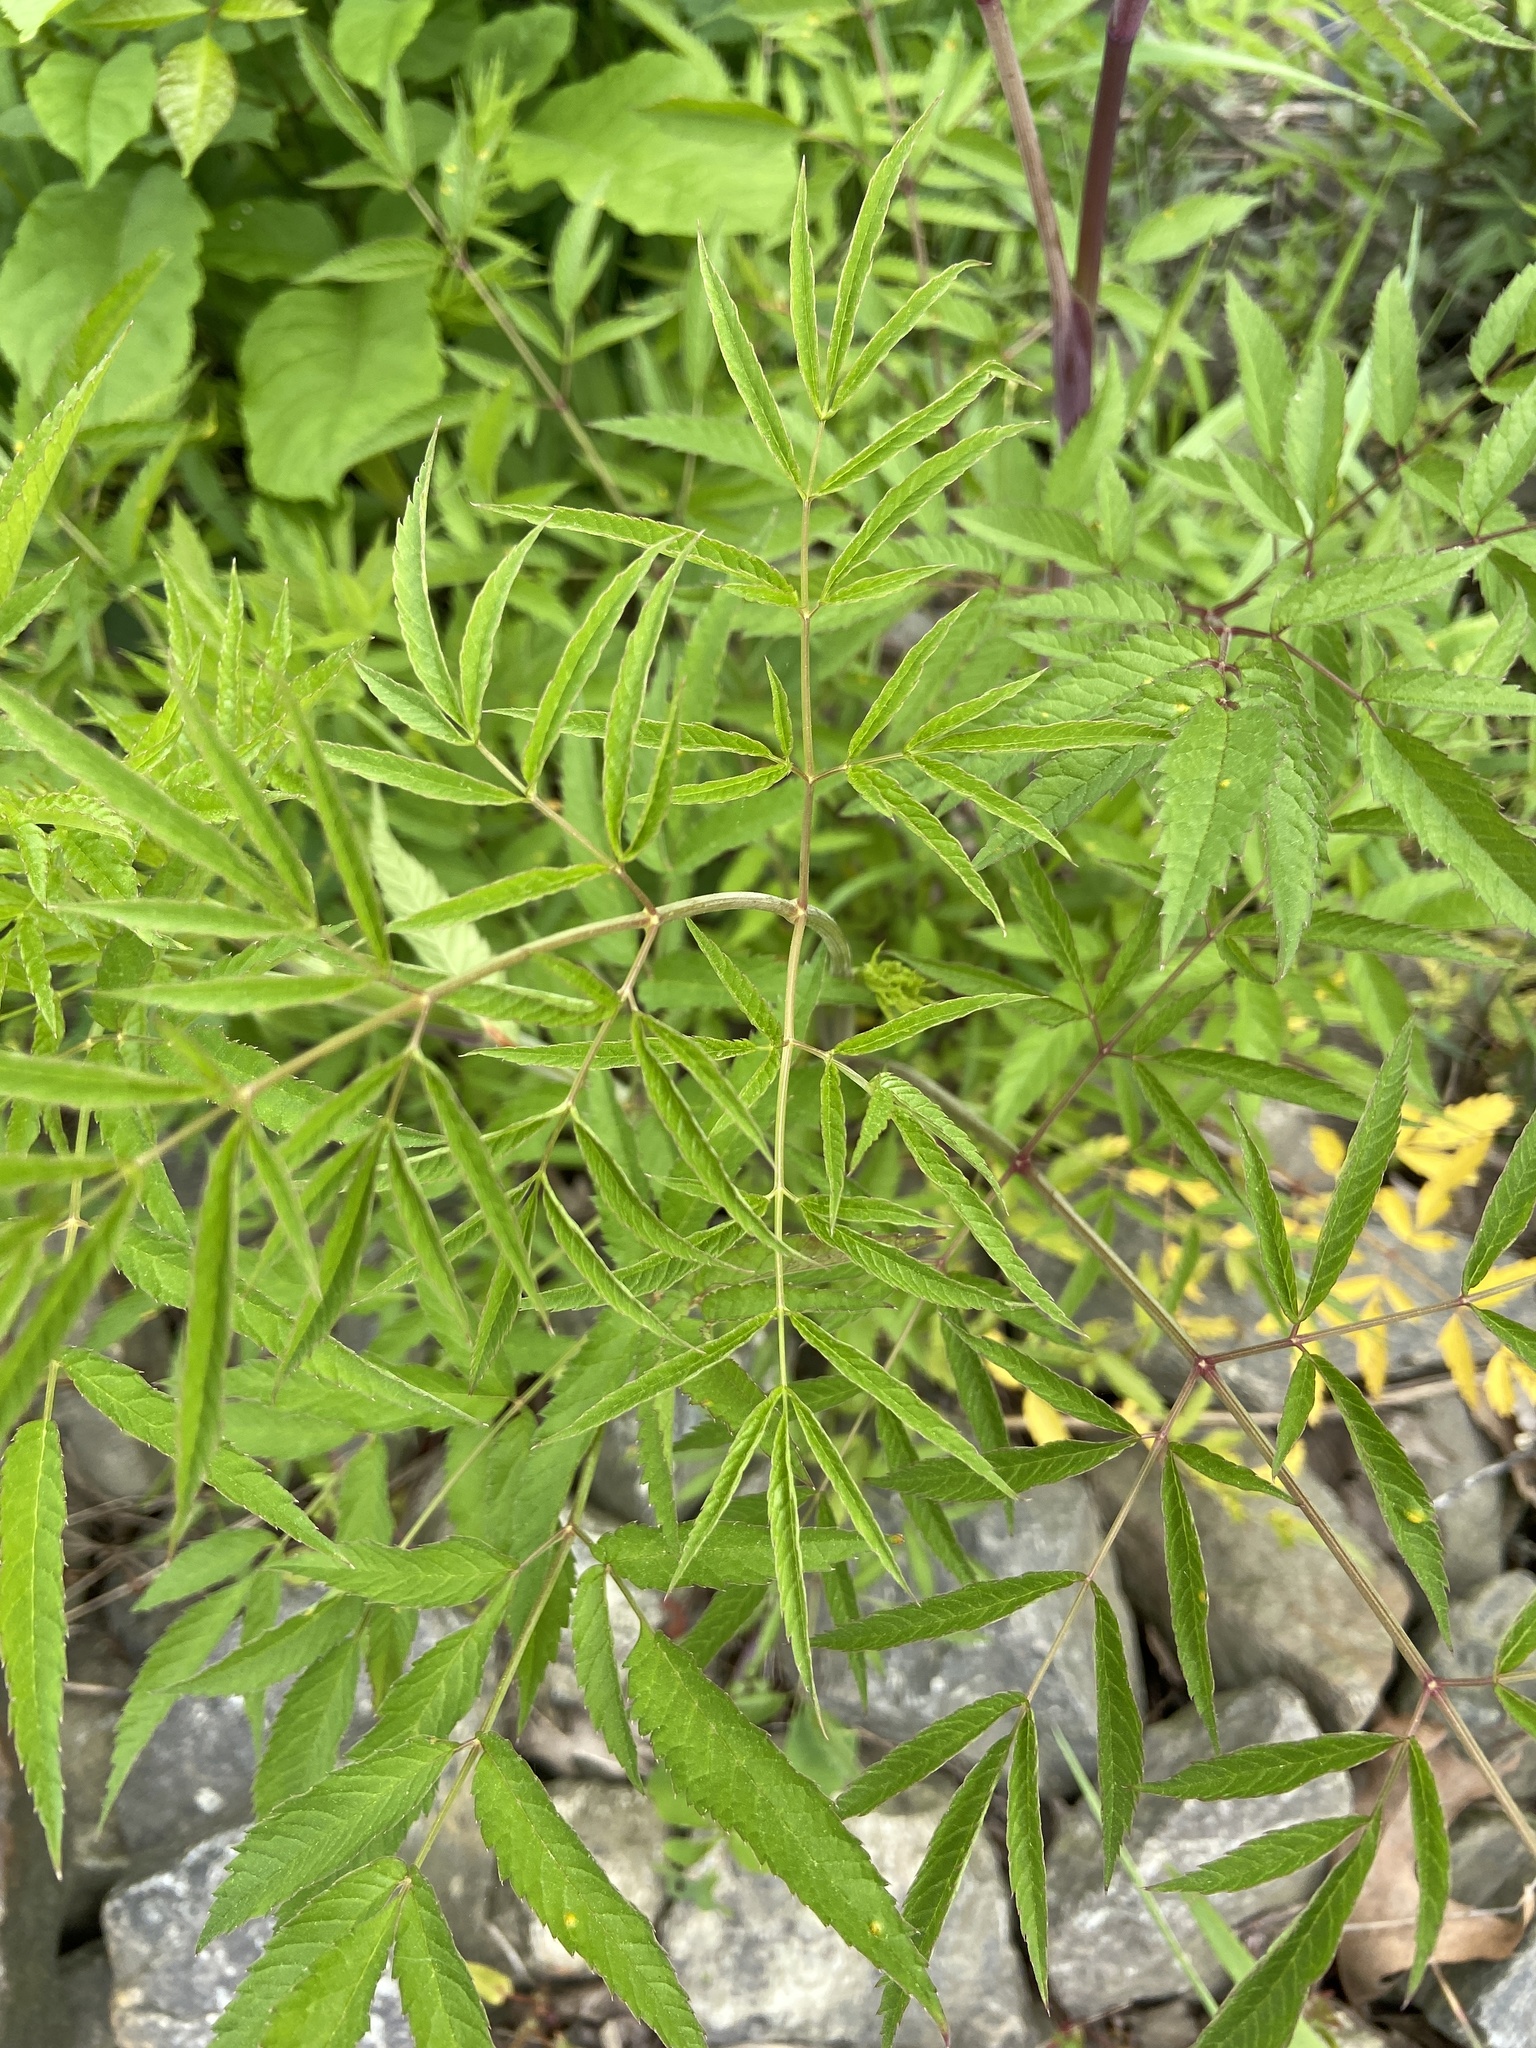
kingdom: Plantae
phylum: Tracheophyta
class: Magnoliopsida
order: Apiales
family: Apiaceae
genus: Cicuta
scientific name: Cicuta maculata
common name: Spotted cowbane
